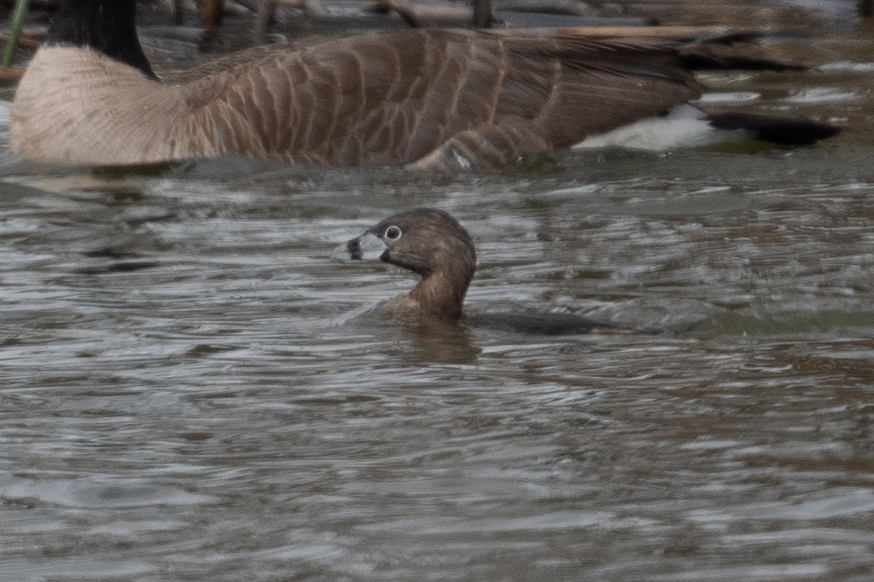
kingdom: Animalia
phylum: Chordata
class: Aves
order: Podicipediformes
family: Podicipedidae
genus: Podilymbus
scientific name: Podilymbus podiceps
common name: Pied-billed grebe
